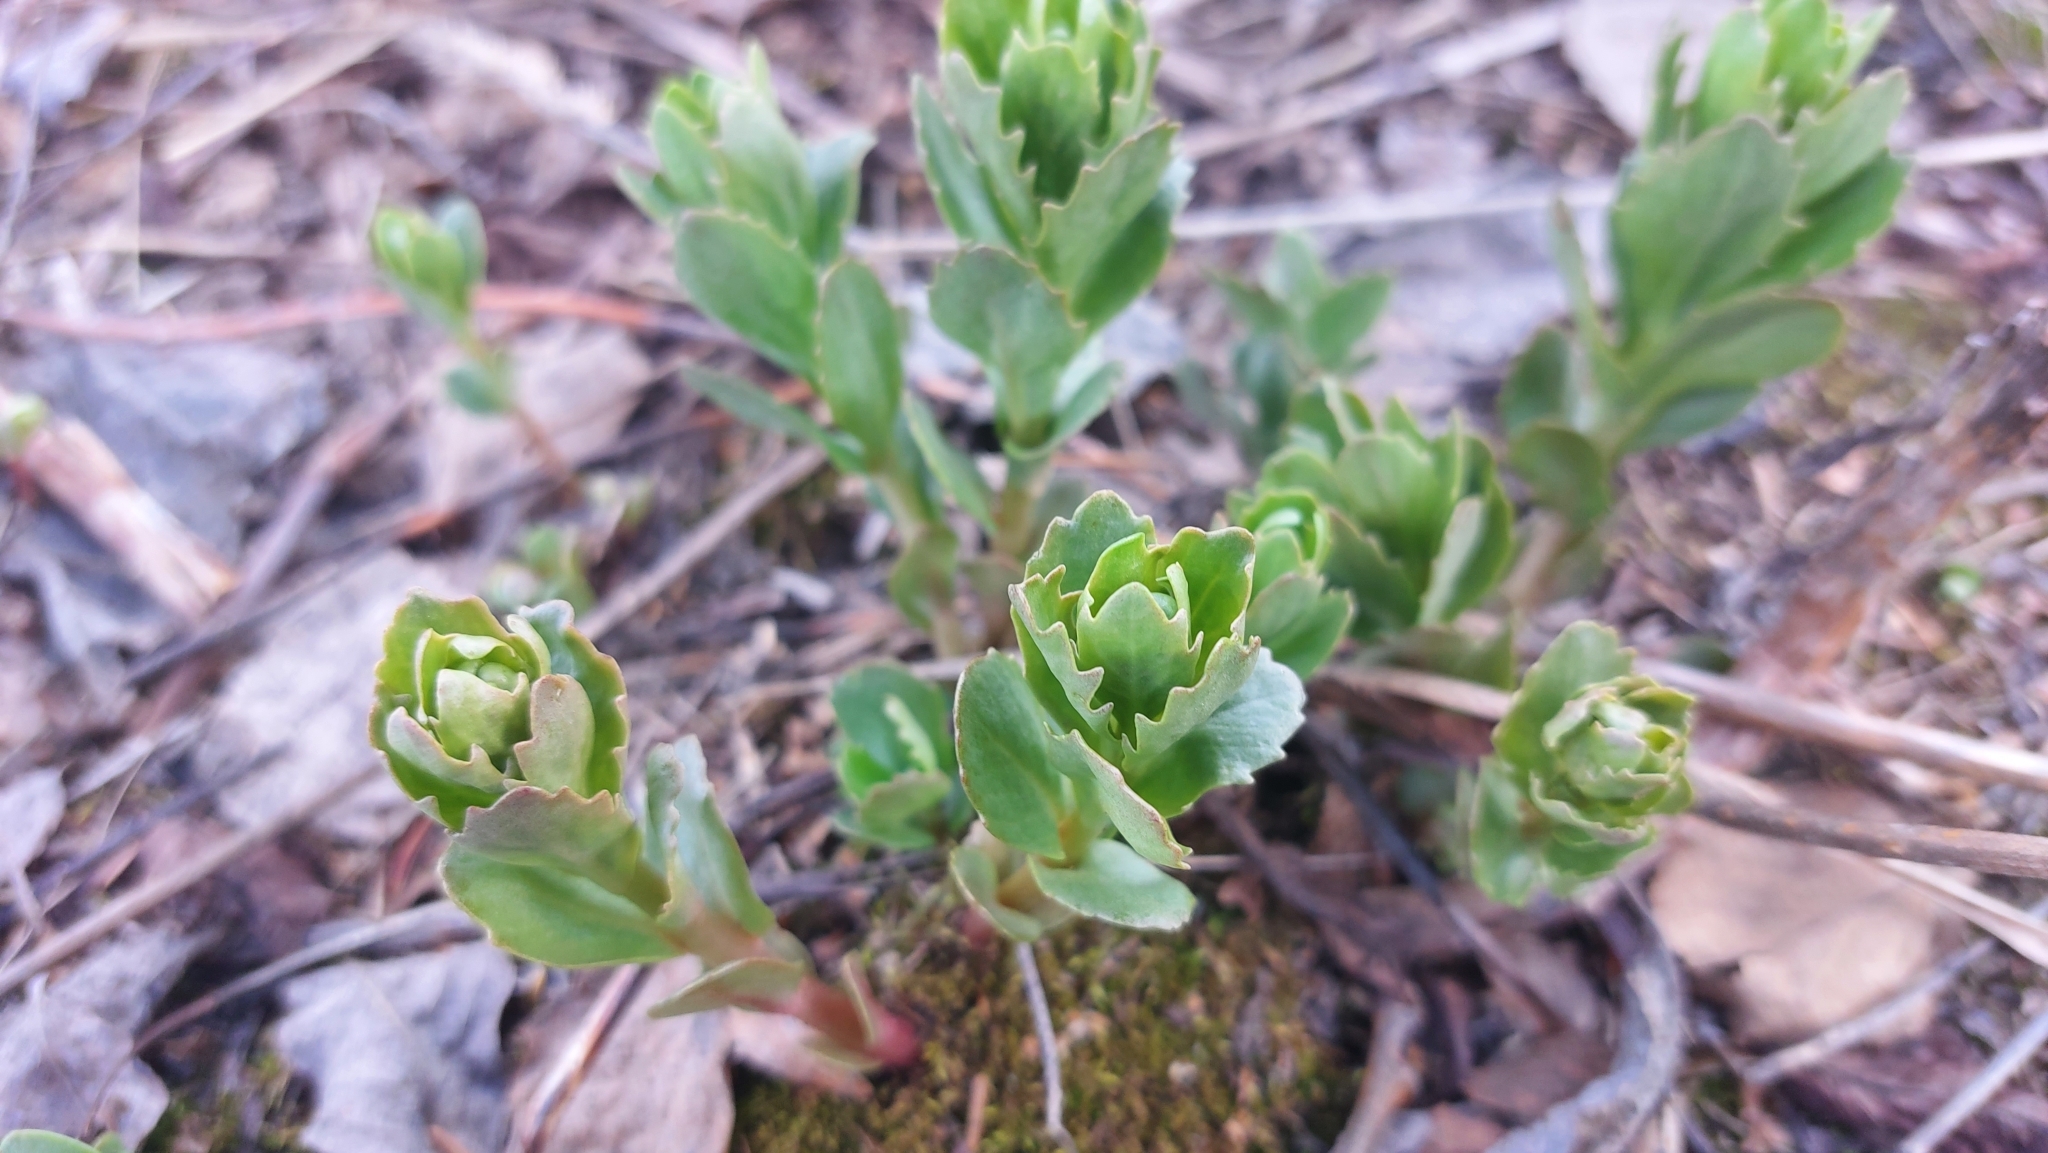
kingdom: Plantae
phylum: Tracheophyta
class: Magnoliopsida
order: Saxifragales
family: Crassulaceae
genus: Hylotelephium
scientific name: Hylotelephium telephium
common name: Live-forever
